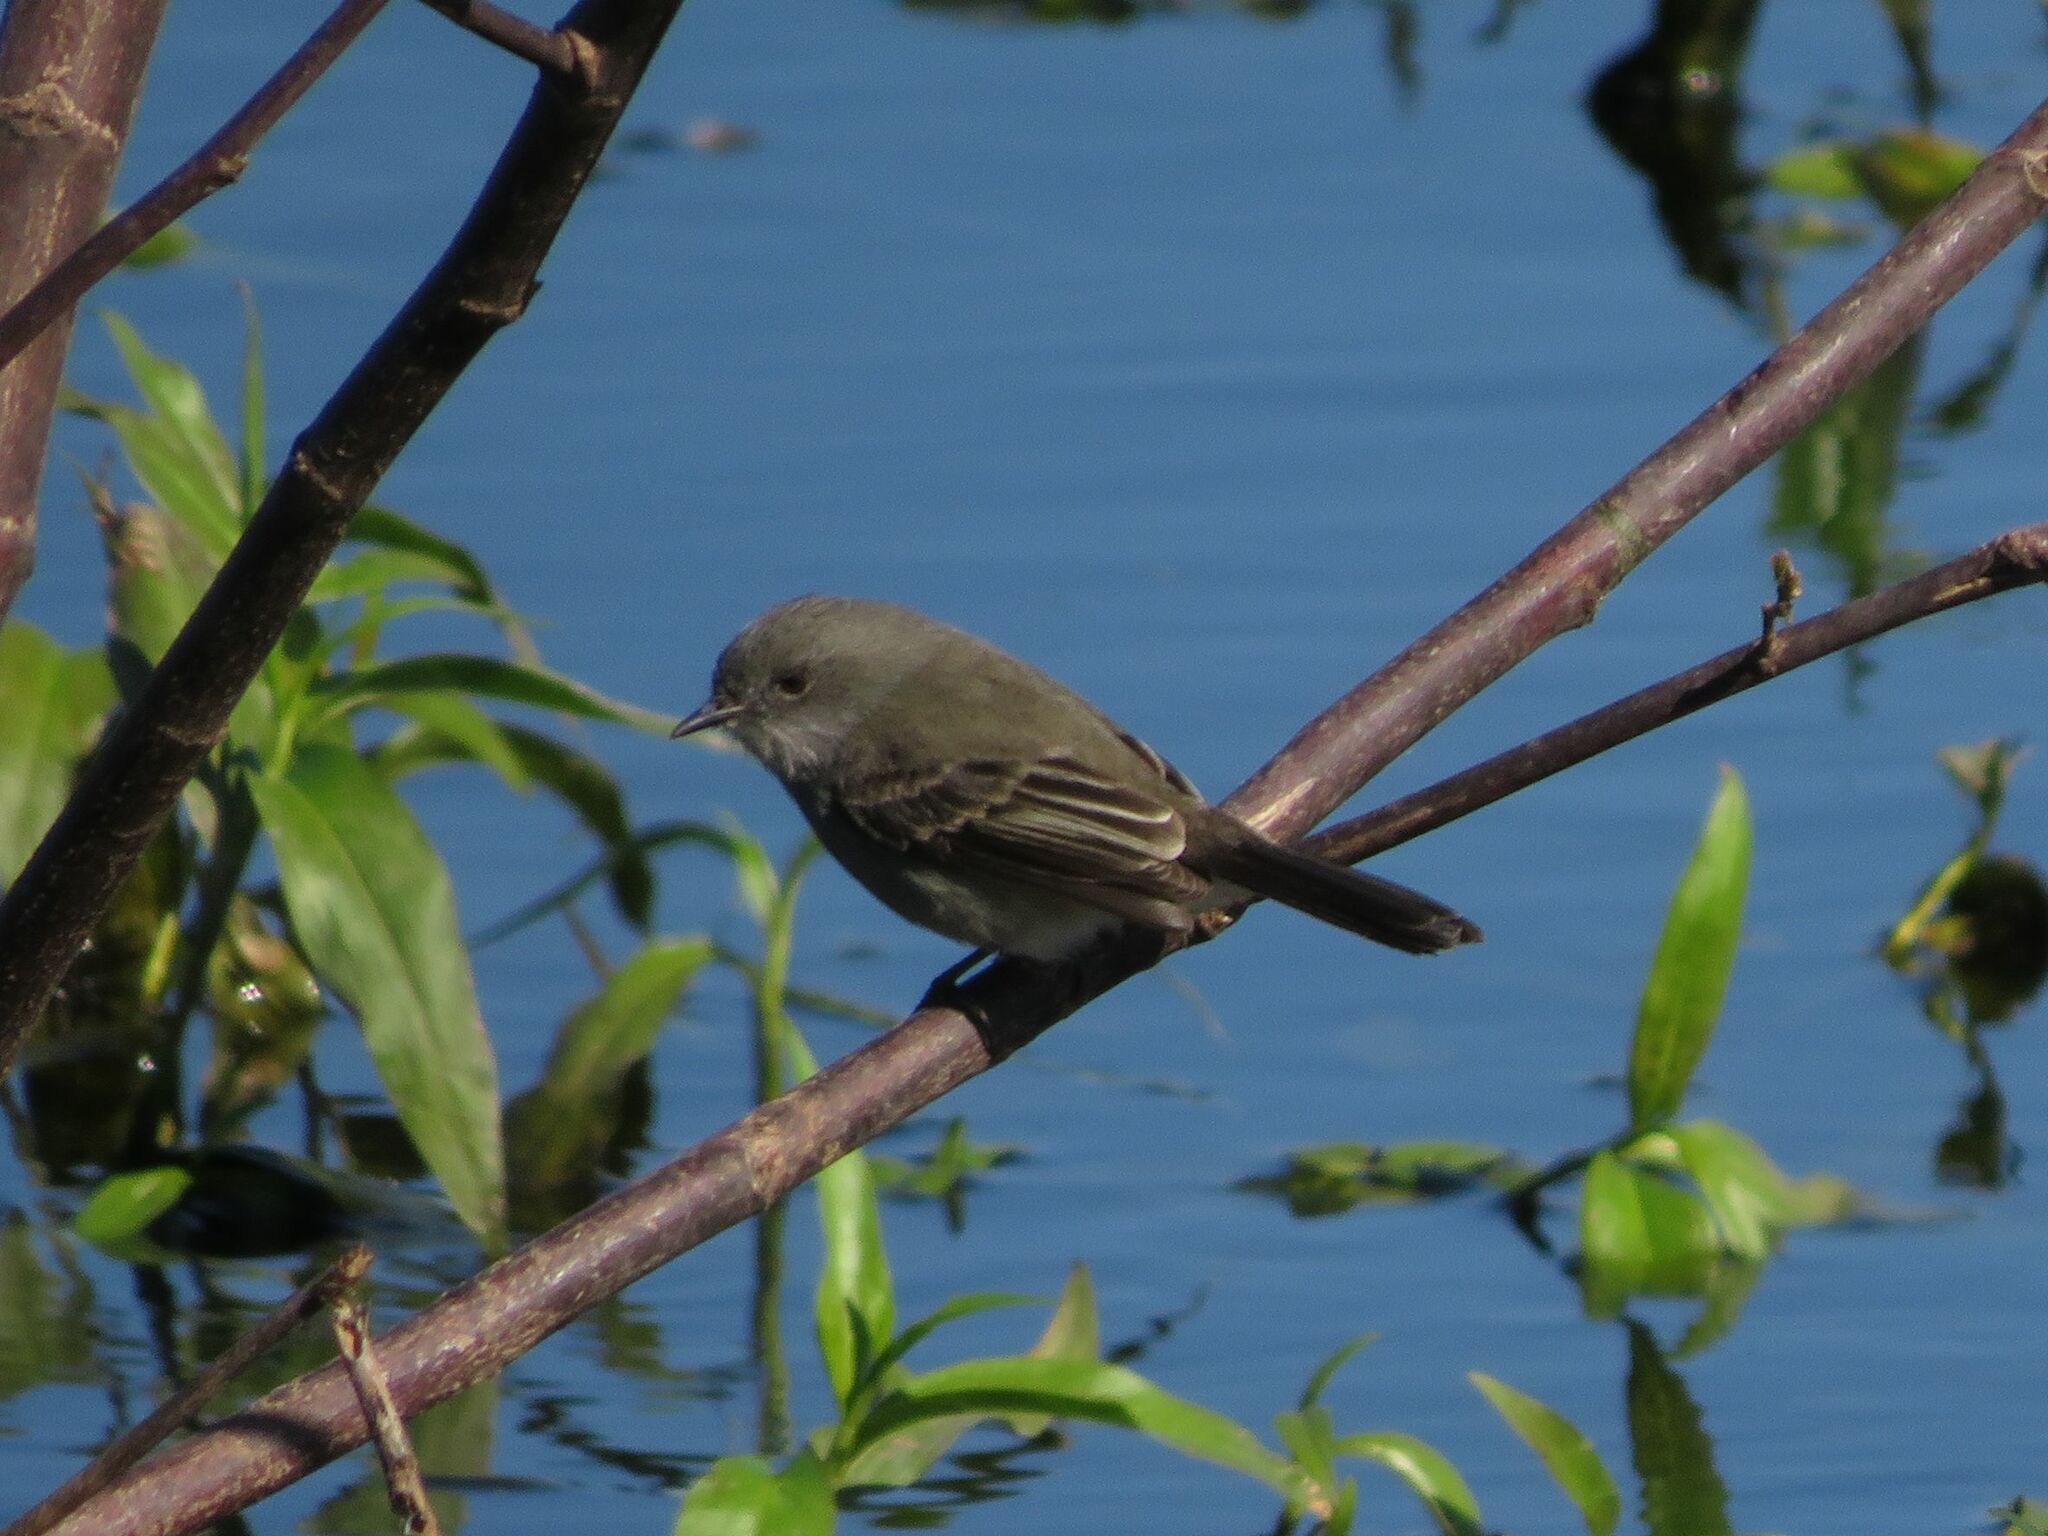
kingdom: Animalia
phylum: Chordata
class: Aves
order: Passeriformes
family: Tyrannidae
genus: Serpophaga
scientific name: Serpophaga nigricans
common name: Sooty tyrannulet
